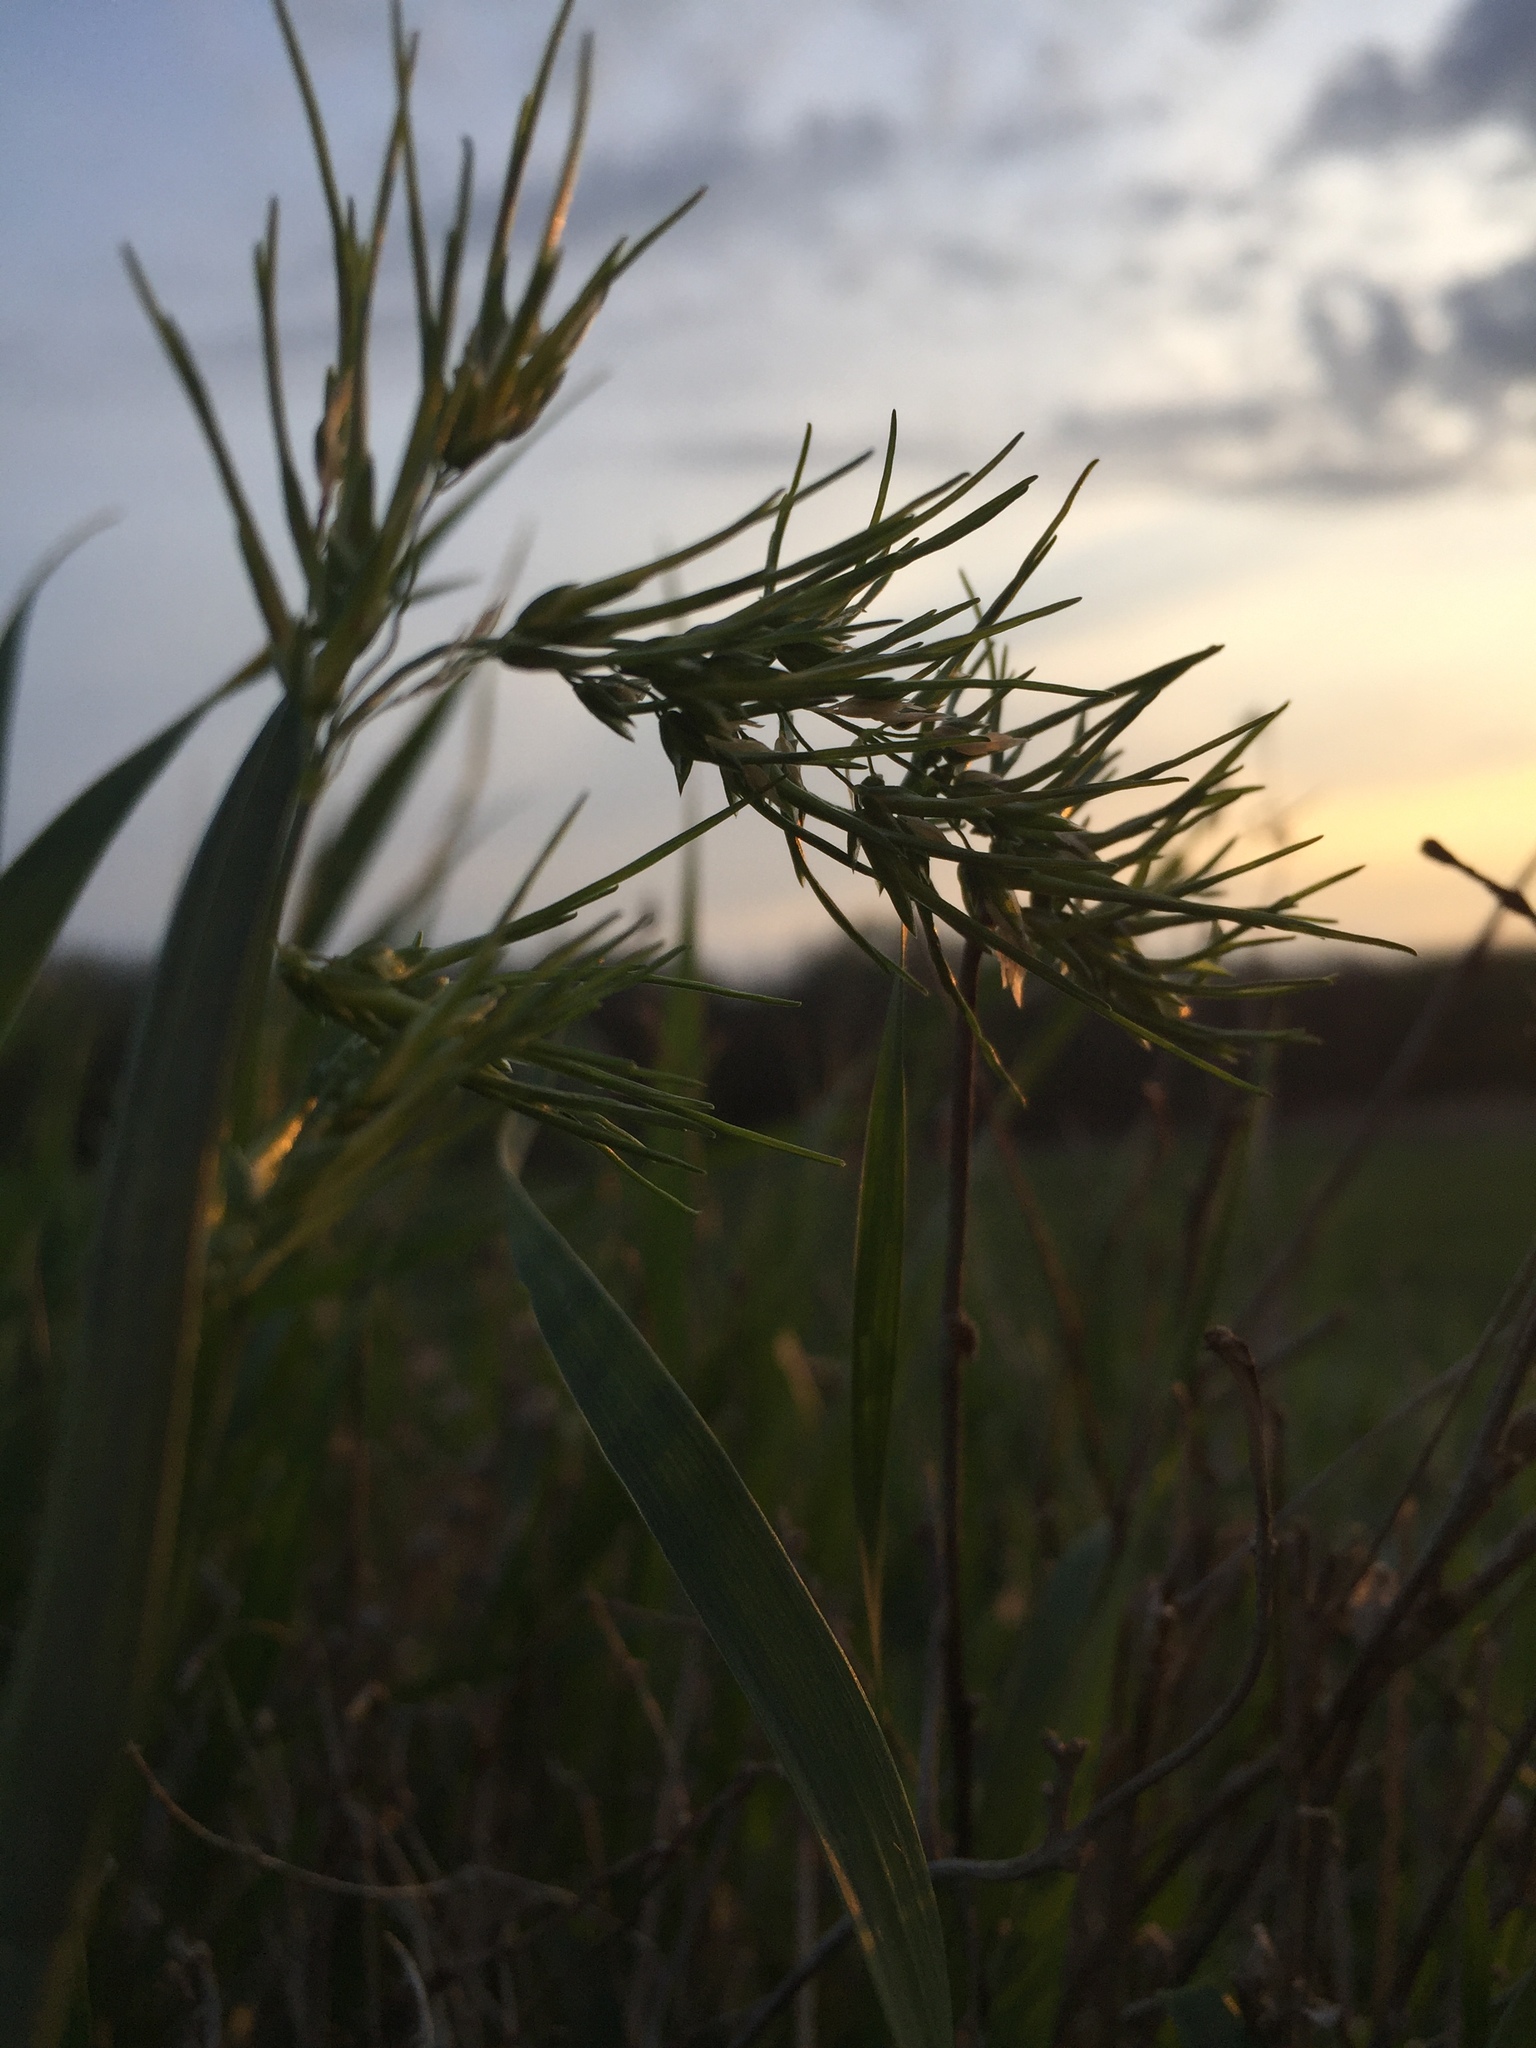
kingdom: Plantae
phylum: Tracheophyta
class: Liliopsida
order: Poales
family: Poaceae
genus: Poa
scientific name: Poa bulbosa
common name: Bulbous bluegrass
